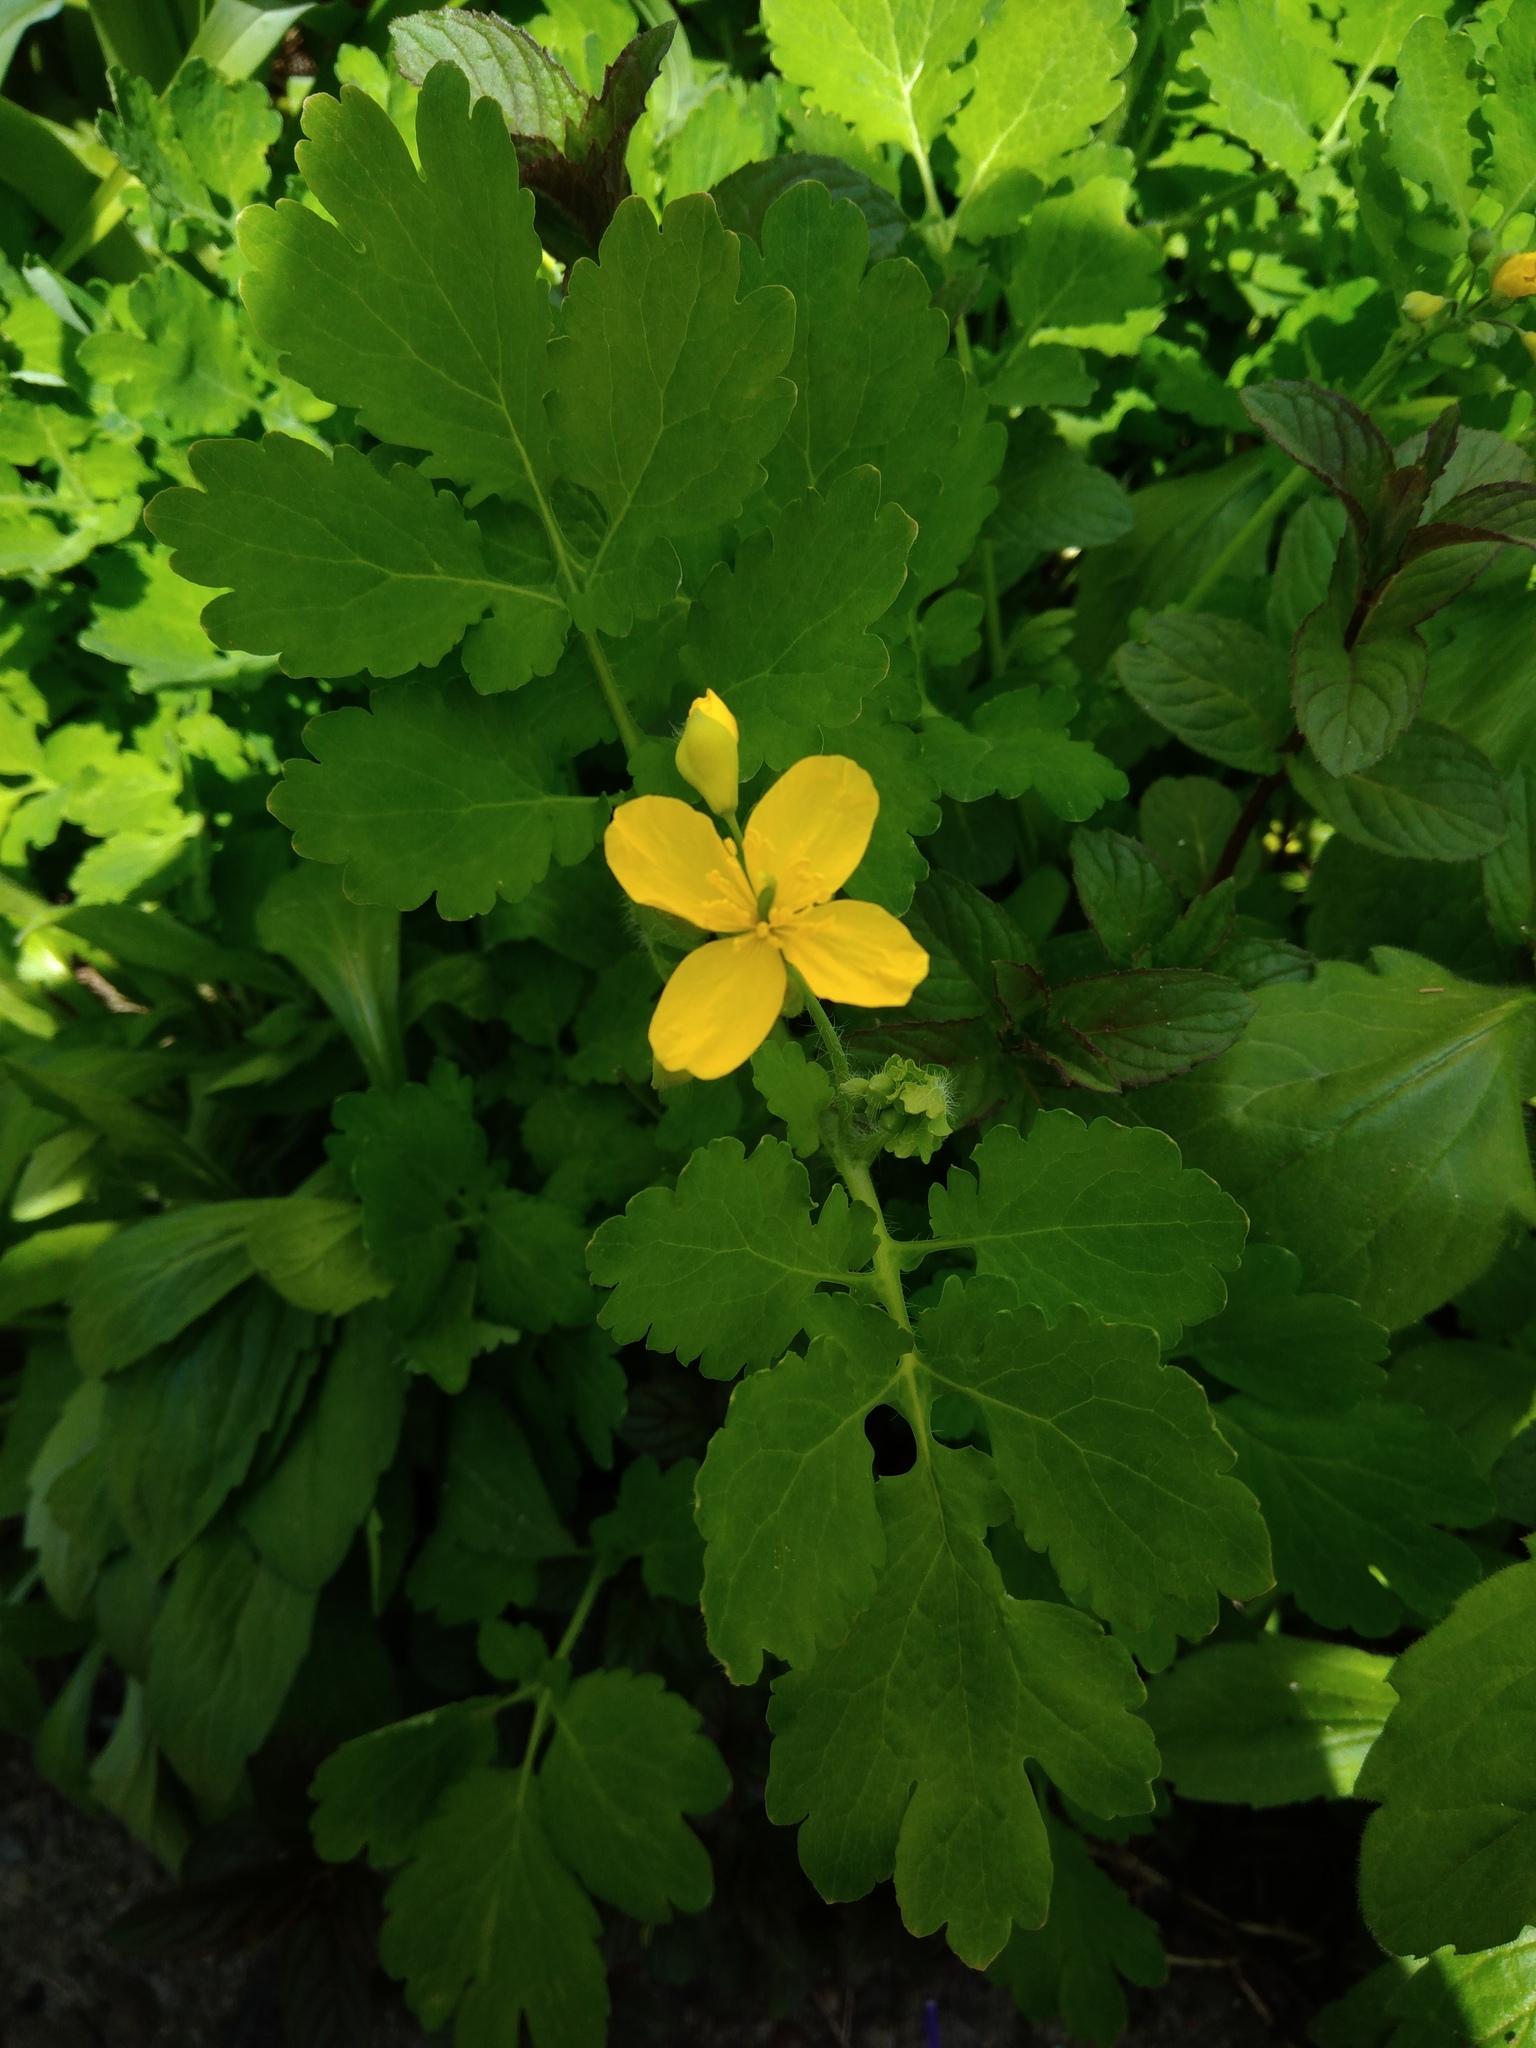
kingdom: Plantae
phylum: Tracheophyta
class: Magnoliopsida
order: Ranunculales
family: Papaveraceae
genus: Chelidonium
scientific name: Chelidonium majus
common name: Greater celandine
